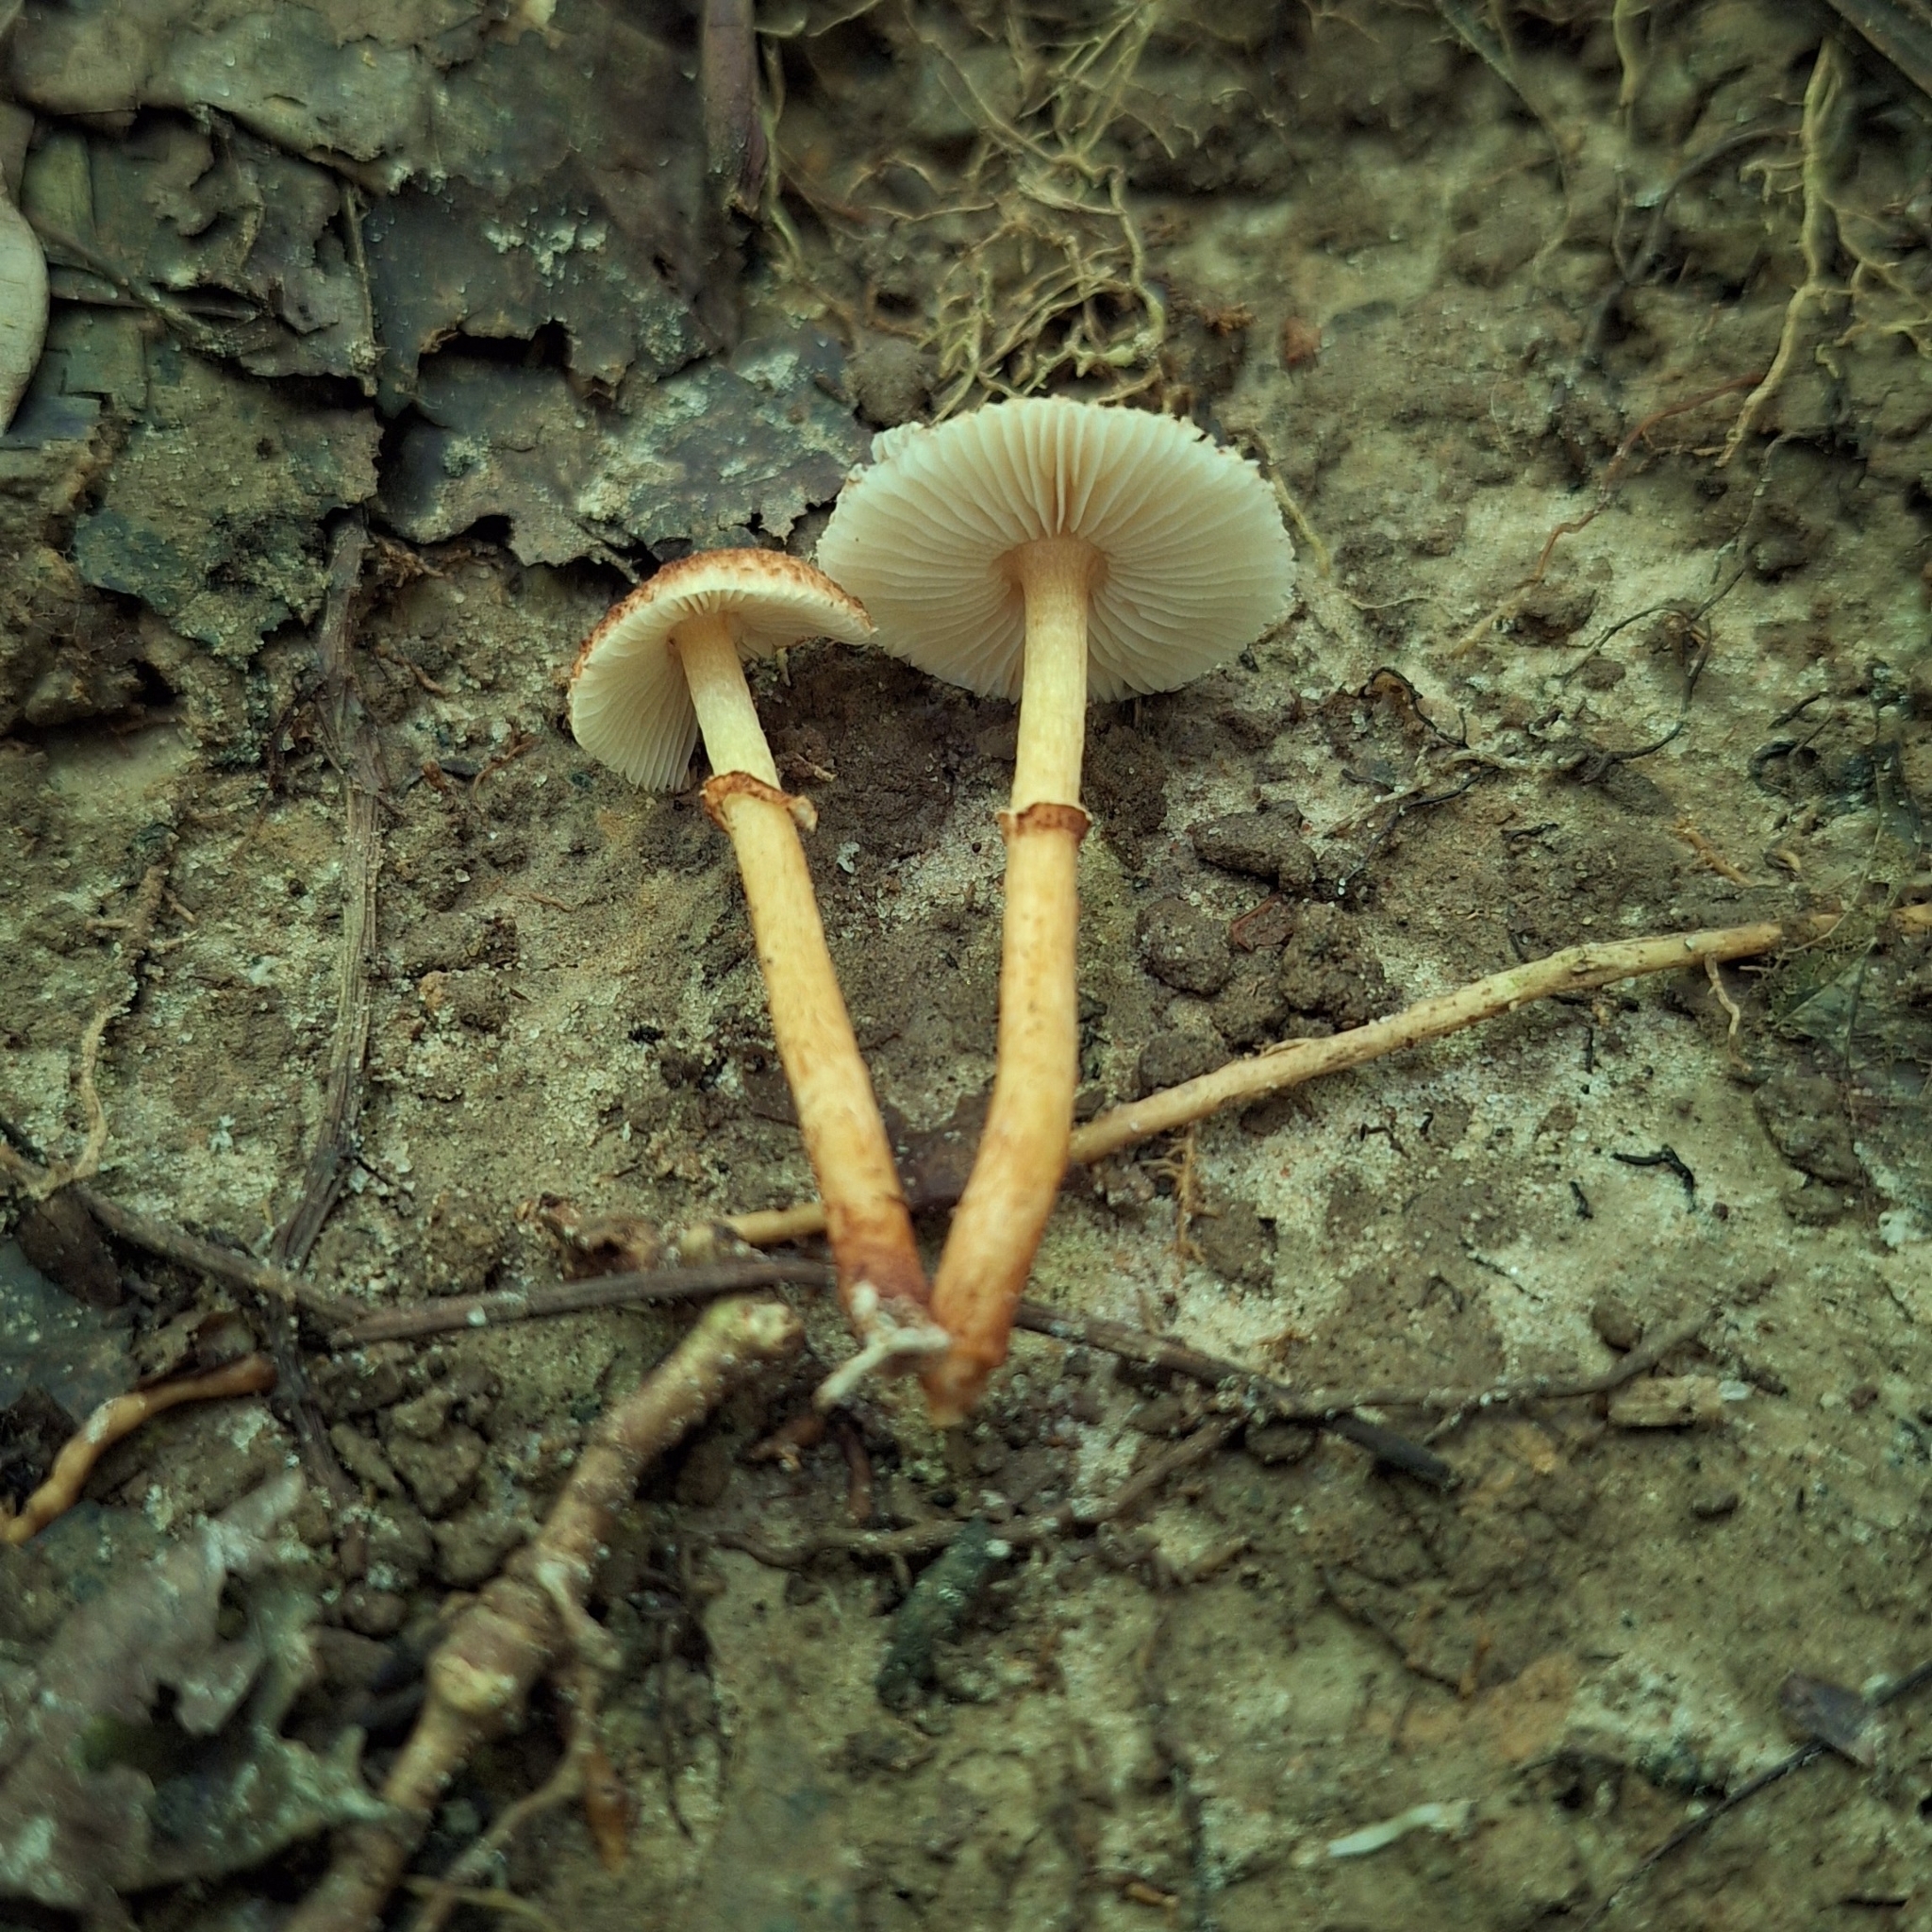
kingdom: Fungi
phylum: Basidiomycota
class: Agaricomycetes
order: Agaricales
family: Agaricaceae
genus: Rugosospora
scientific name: Rugosospora pseudorubiginosa
